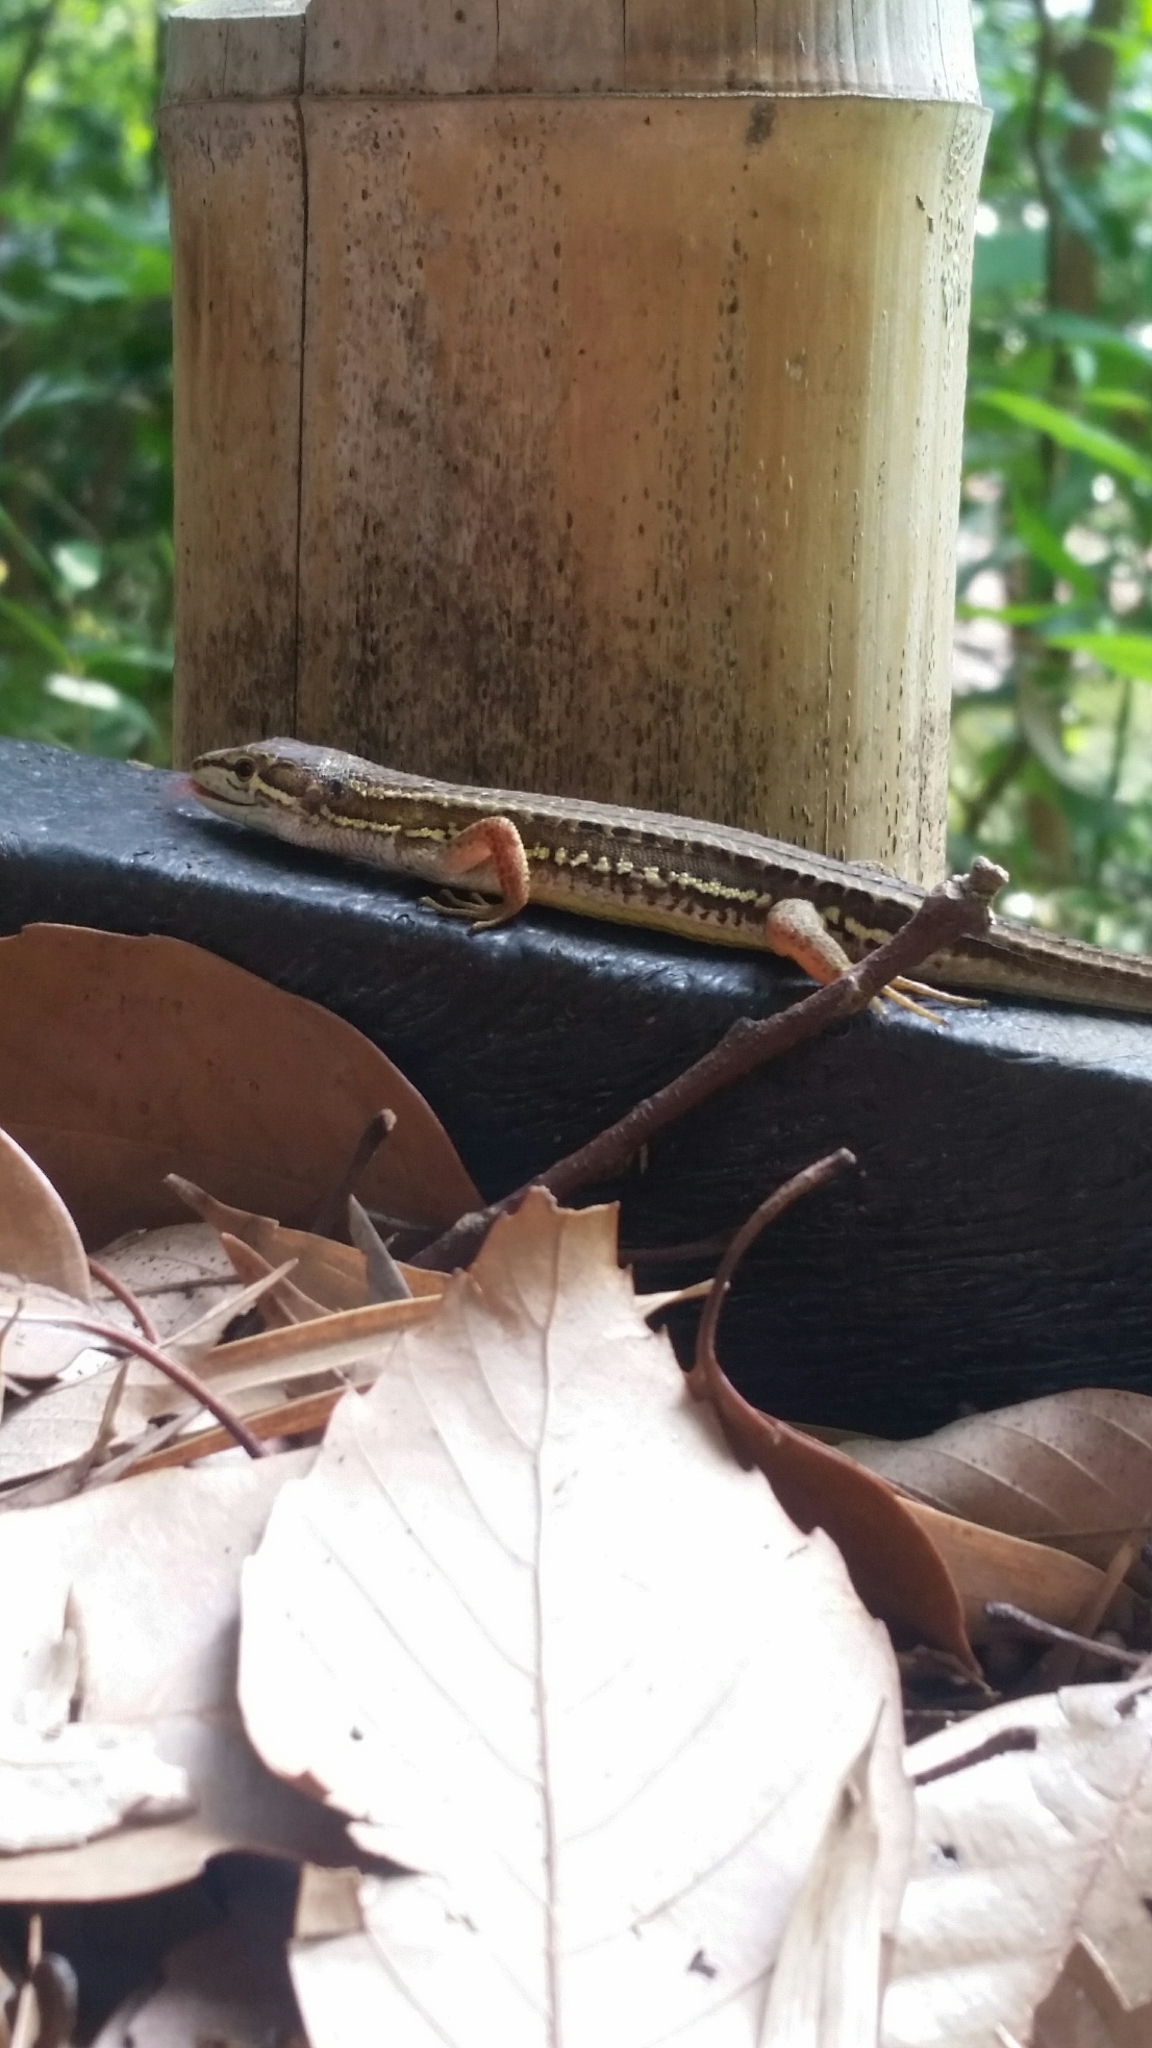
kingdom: Animalia
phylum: Chordata
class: Squamata
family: Lacertidae
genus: Takydromus
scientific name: Takydromus tachydromoides
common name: Japanese grass lizard
